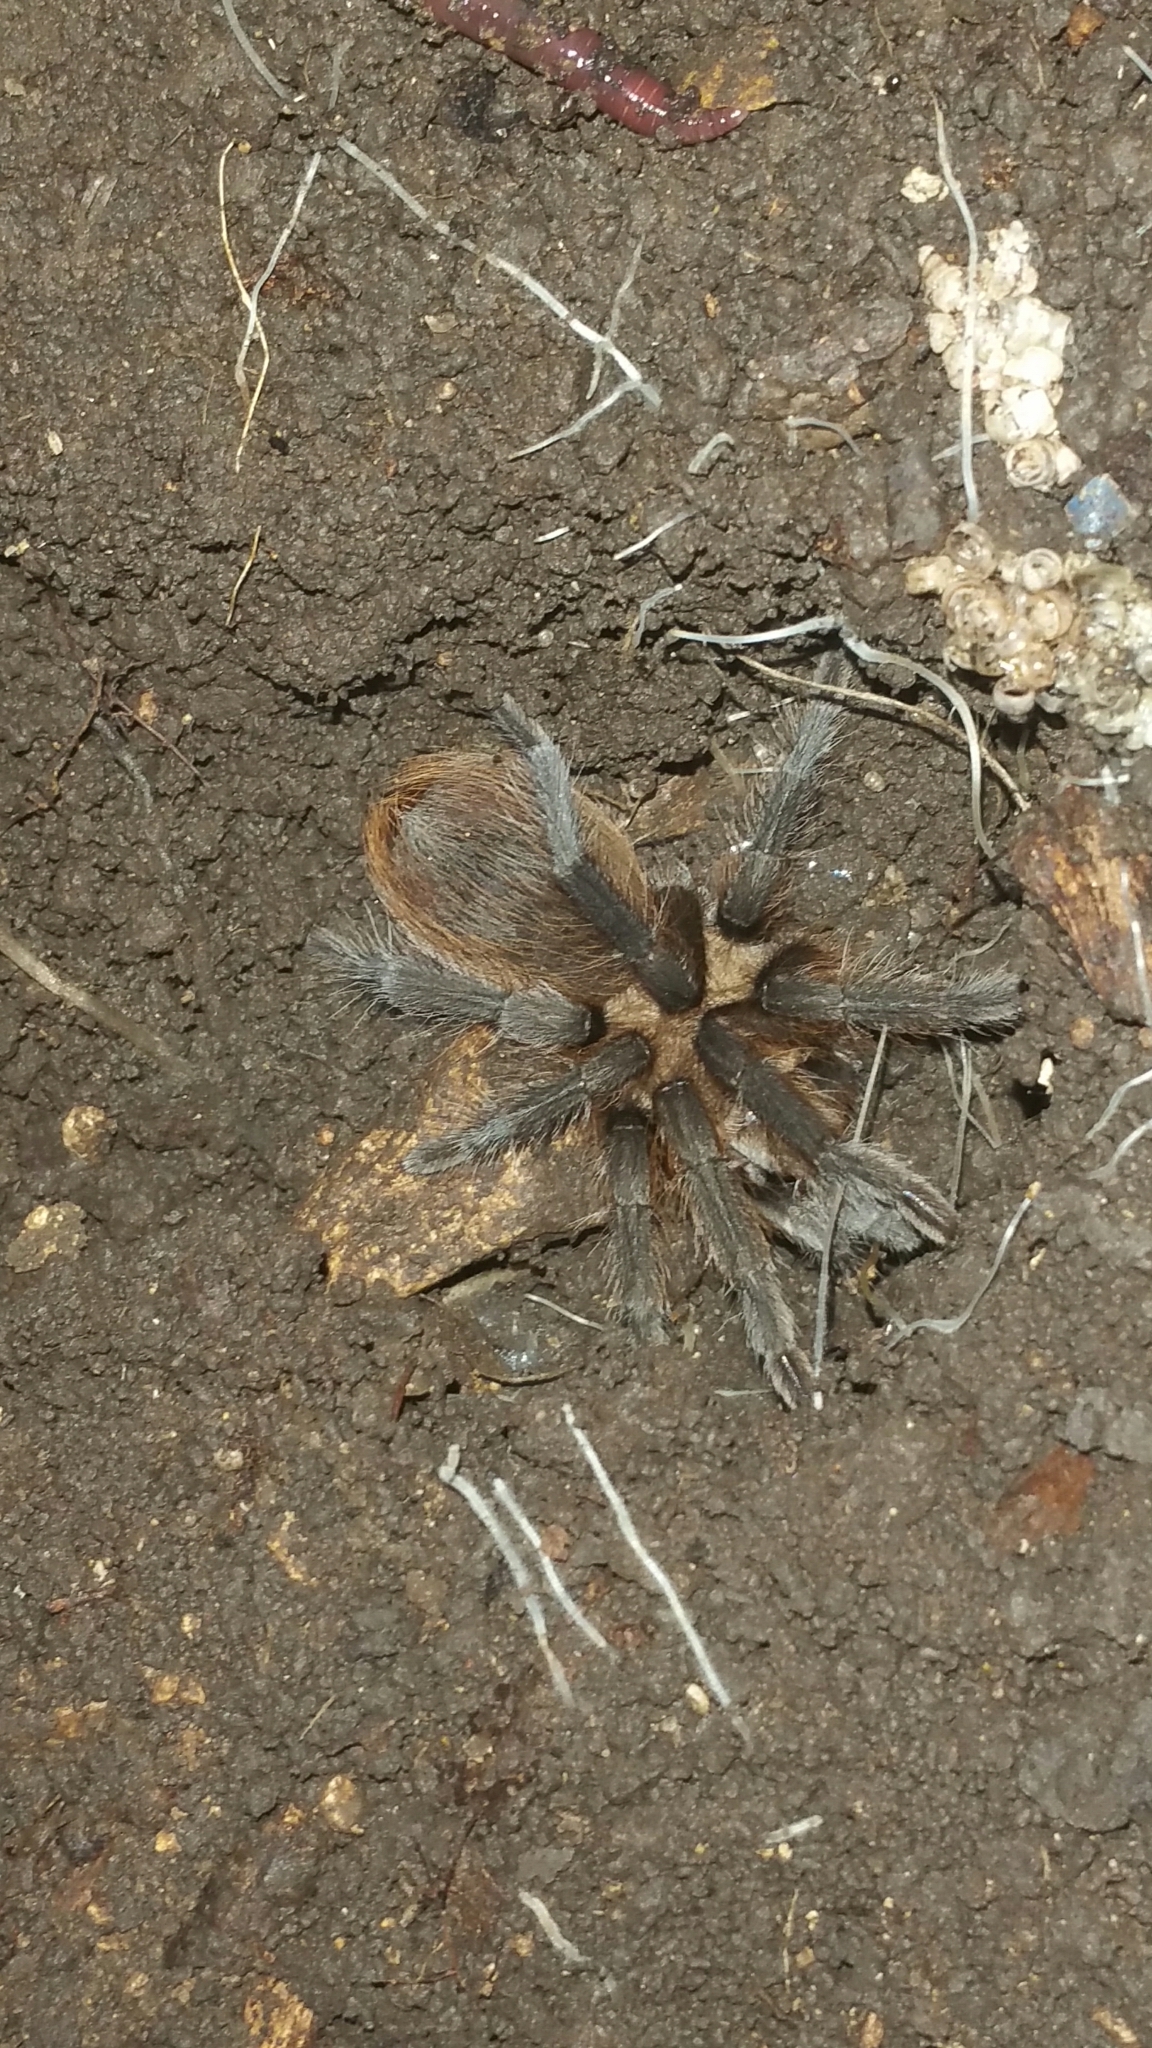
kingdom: Animalia
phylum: Arthropoda
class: Arachnida
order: Araneae
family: Theraphosidae
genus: Aphonopelma
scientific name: Aphonopelma hentzi
